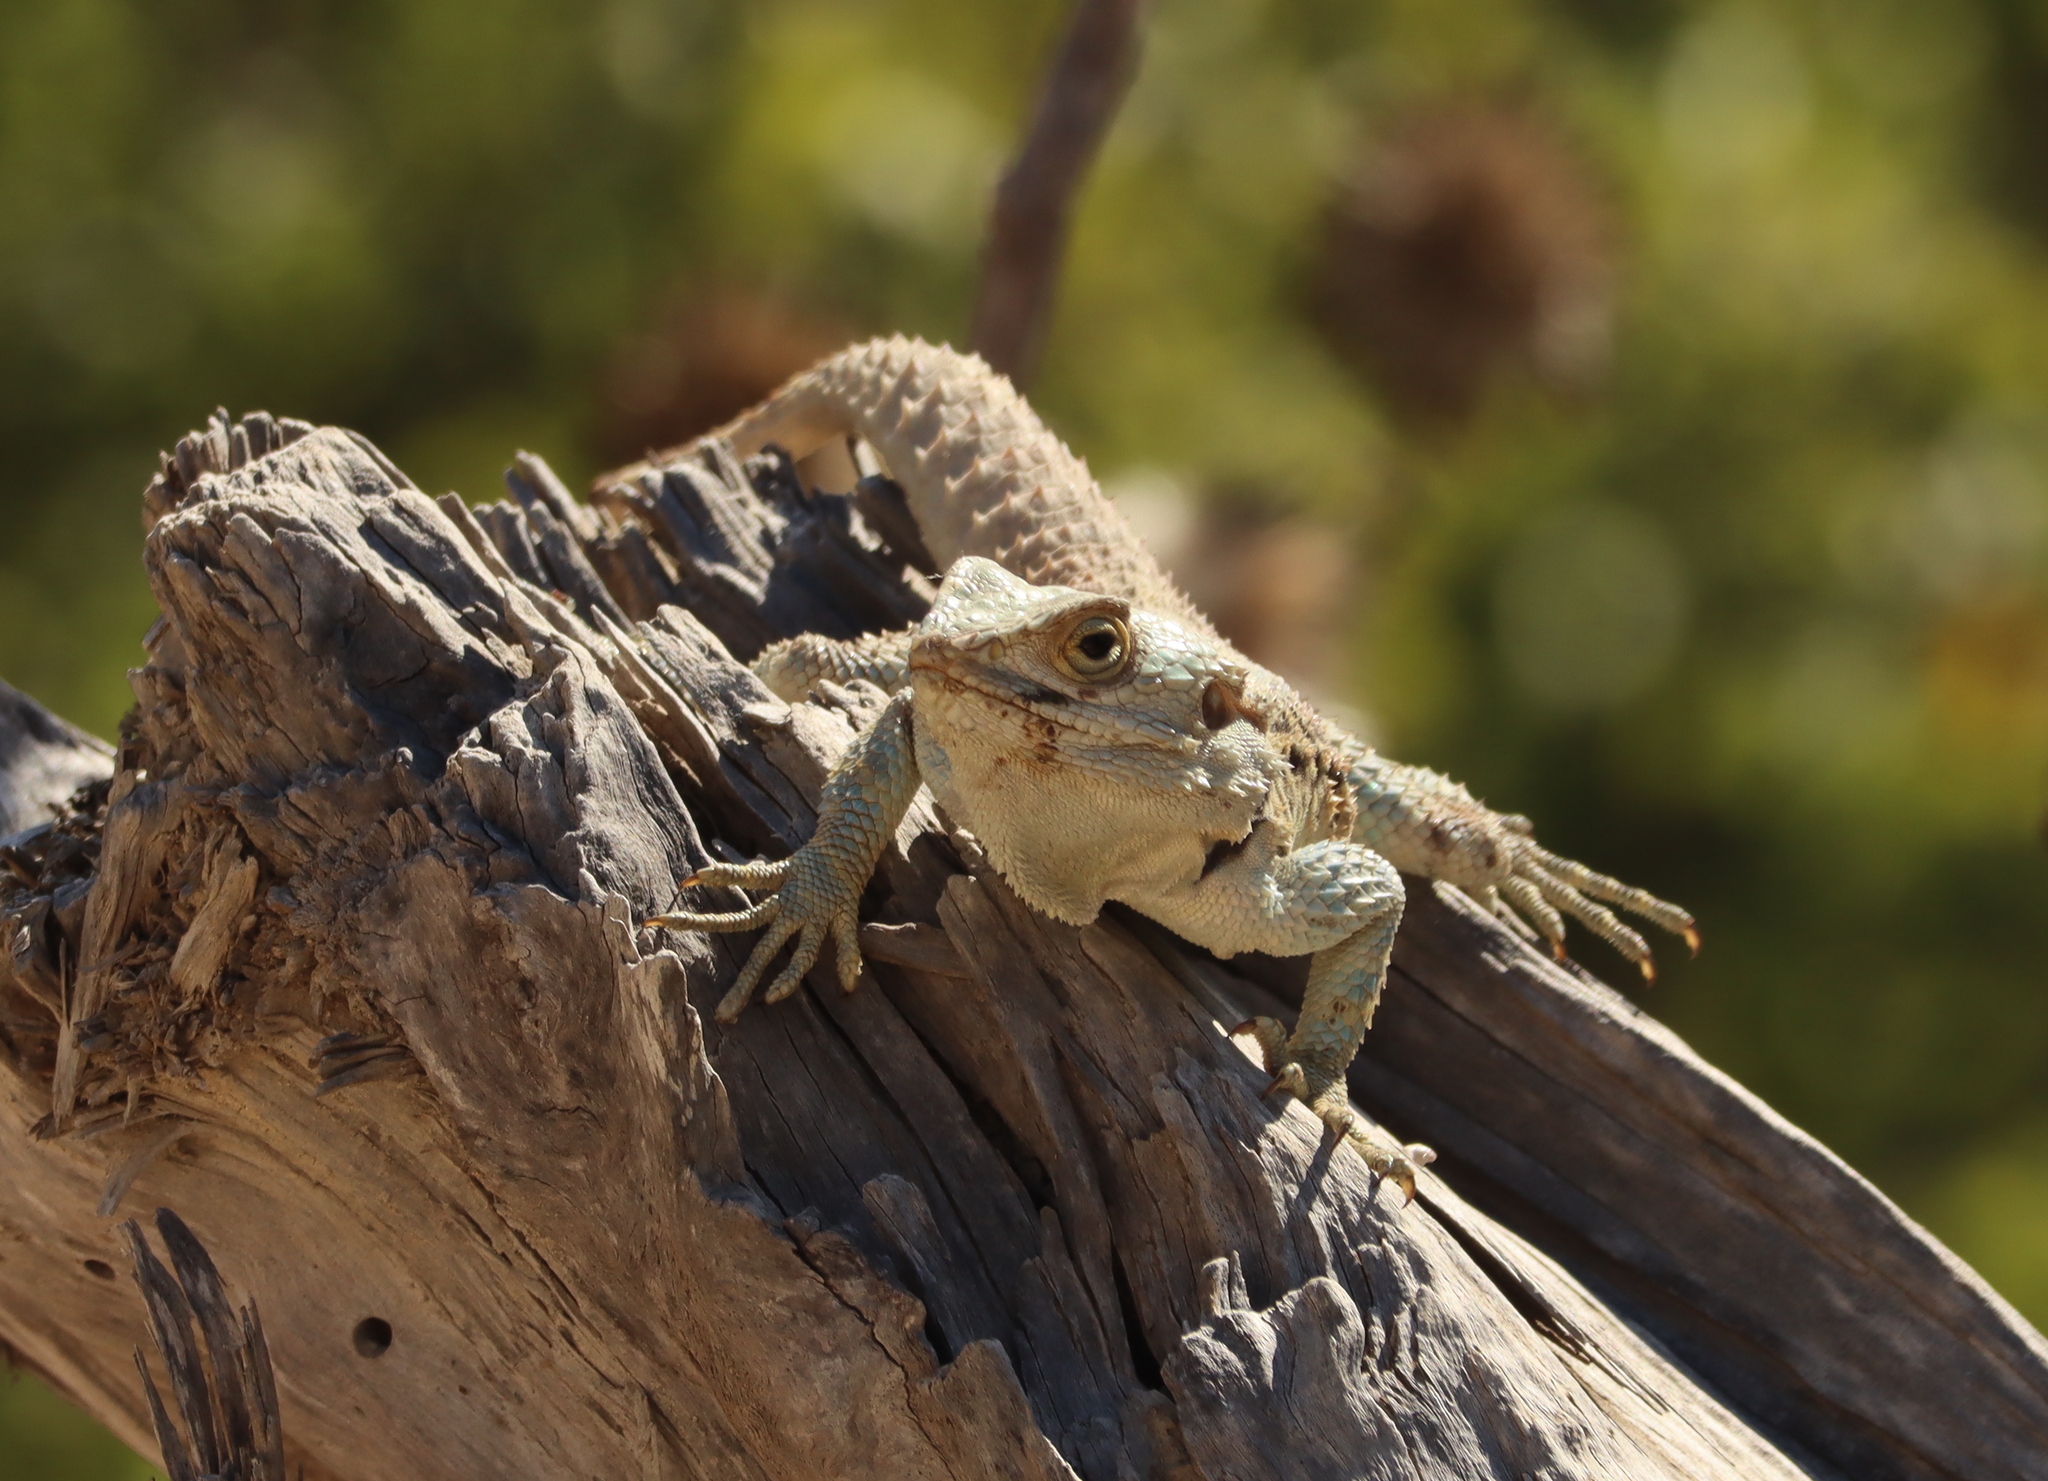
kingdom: Animalia
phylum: Chordata
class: Squamata
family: Agamidae
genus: Laudakia
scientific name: Laudakia
